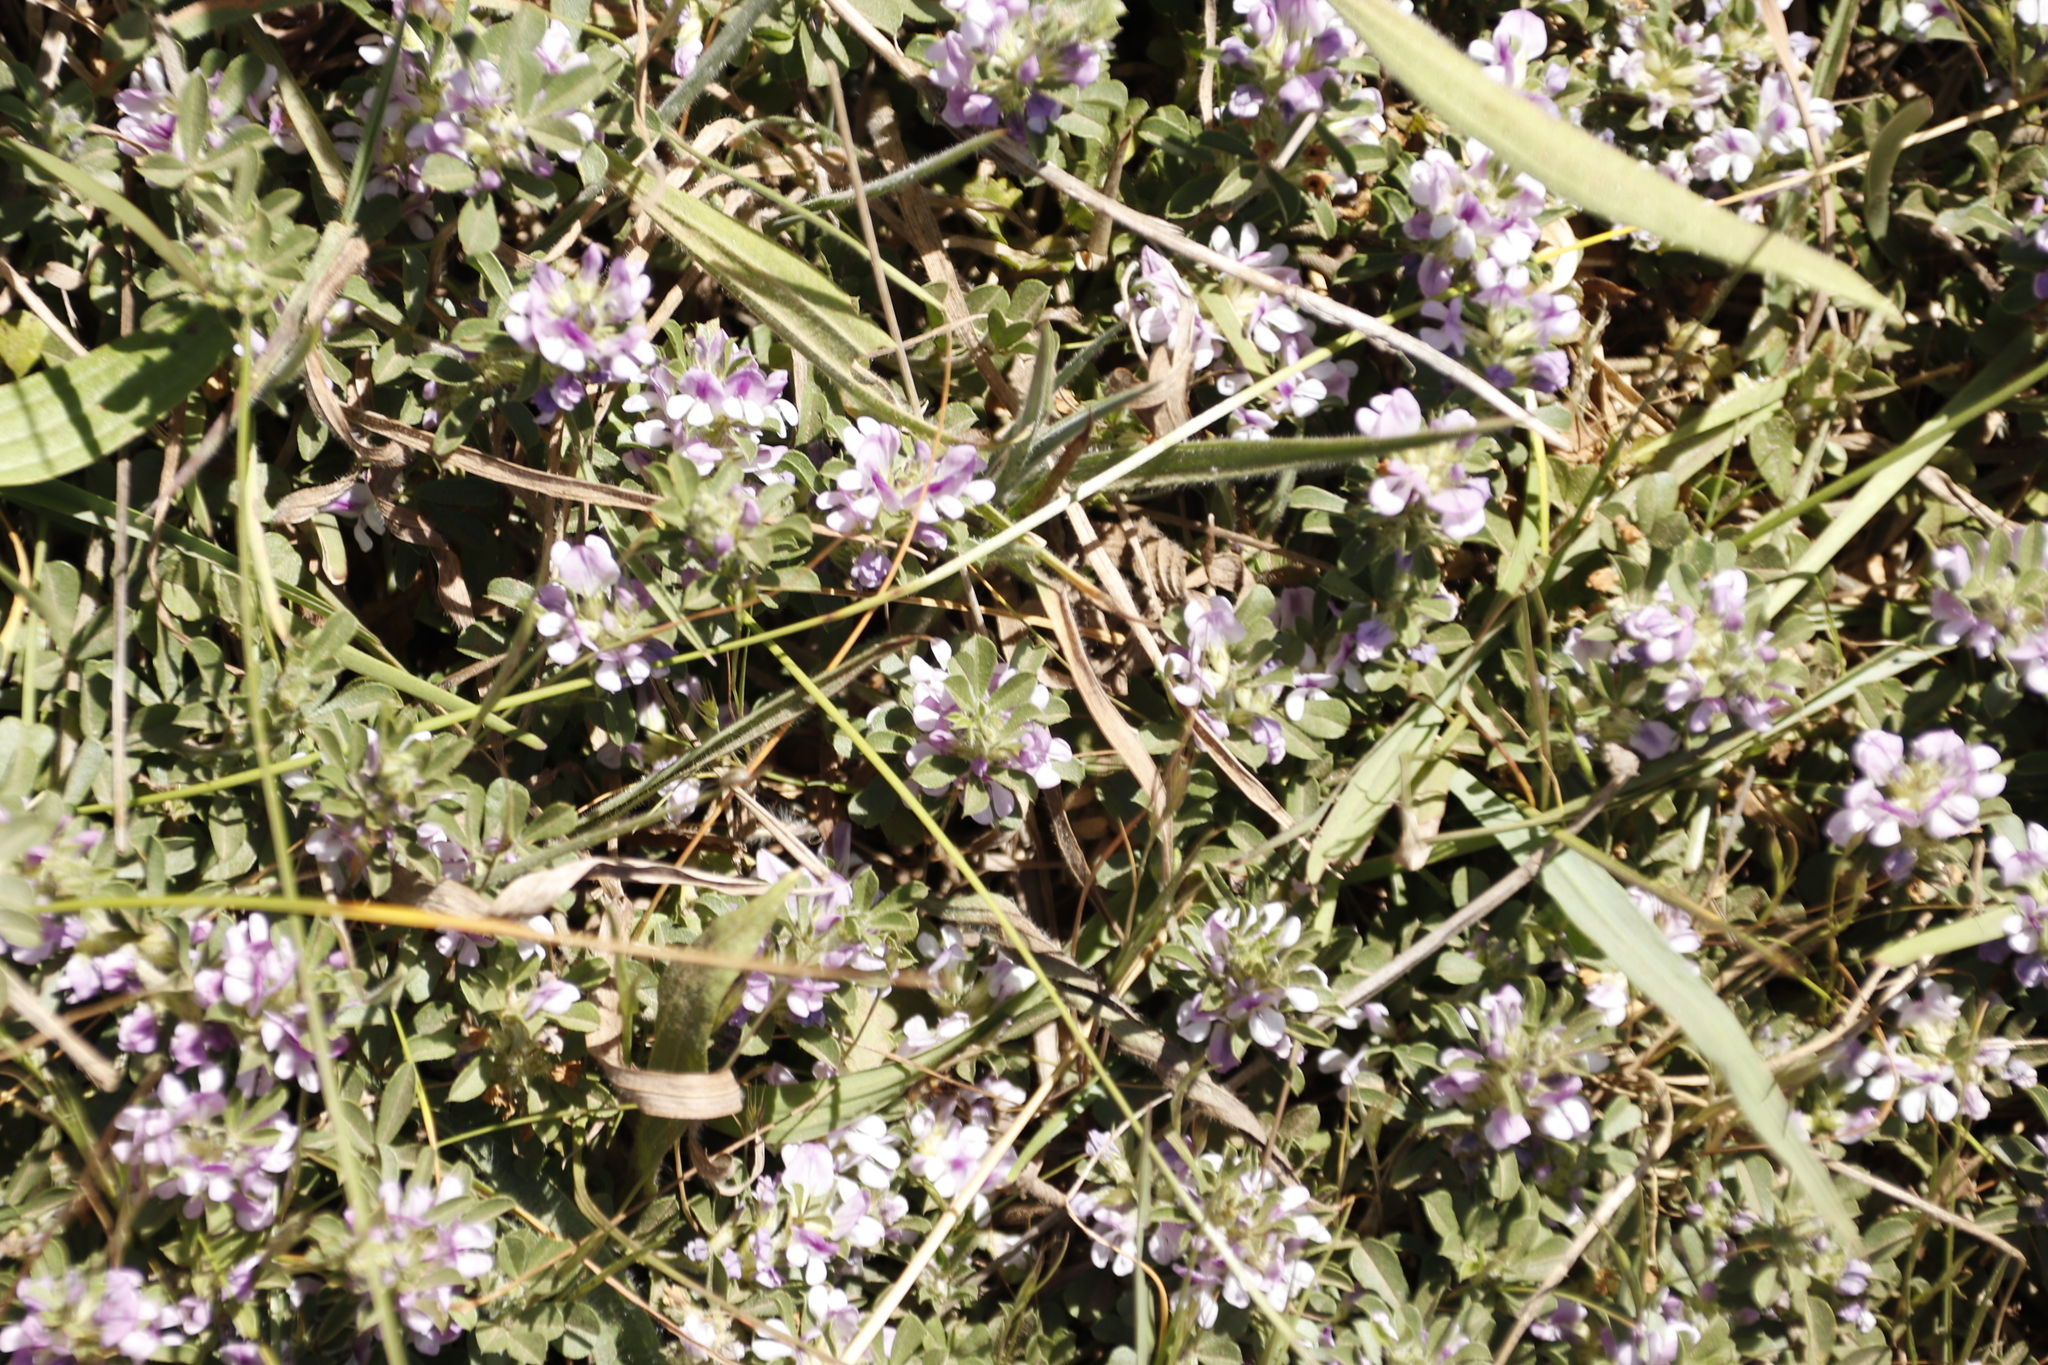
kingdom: Plantae
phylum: Tracheophyta
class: Magnoliopsida
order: Fabales
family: Fabaceae
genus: Psoralea
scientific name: Psoralea
